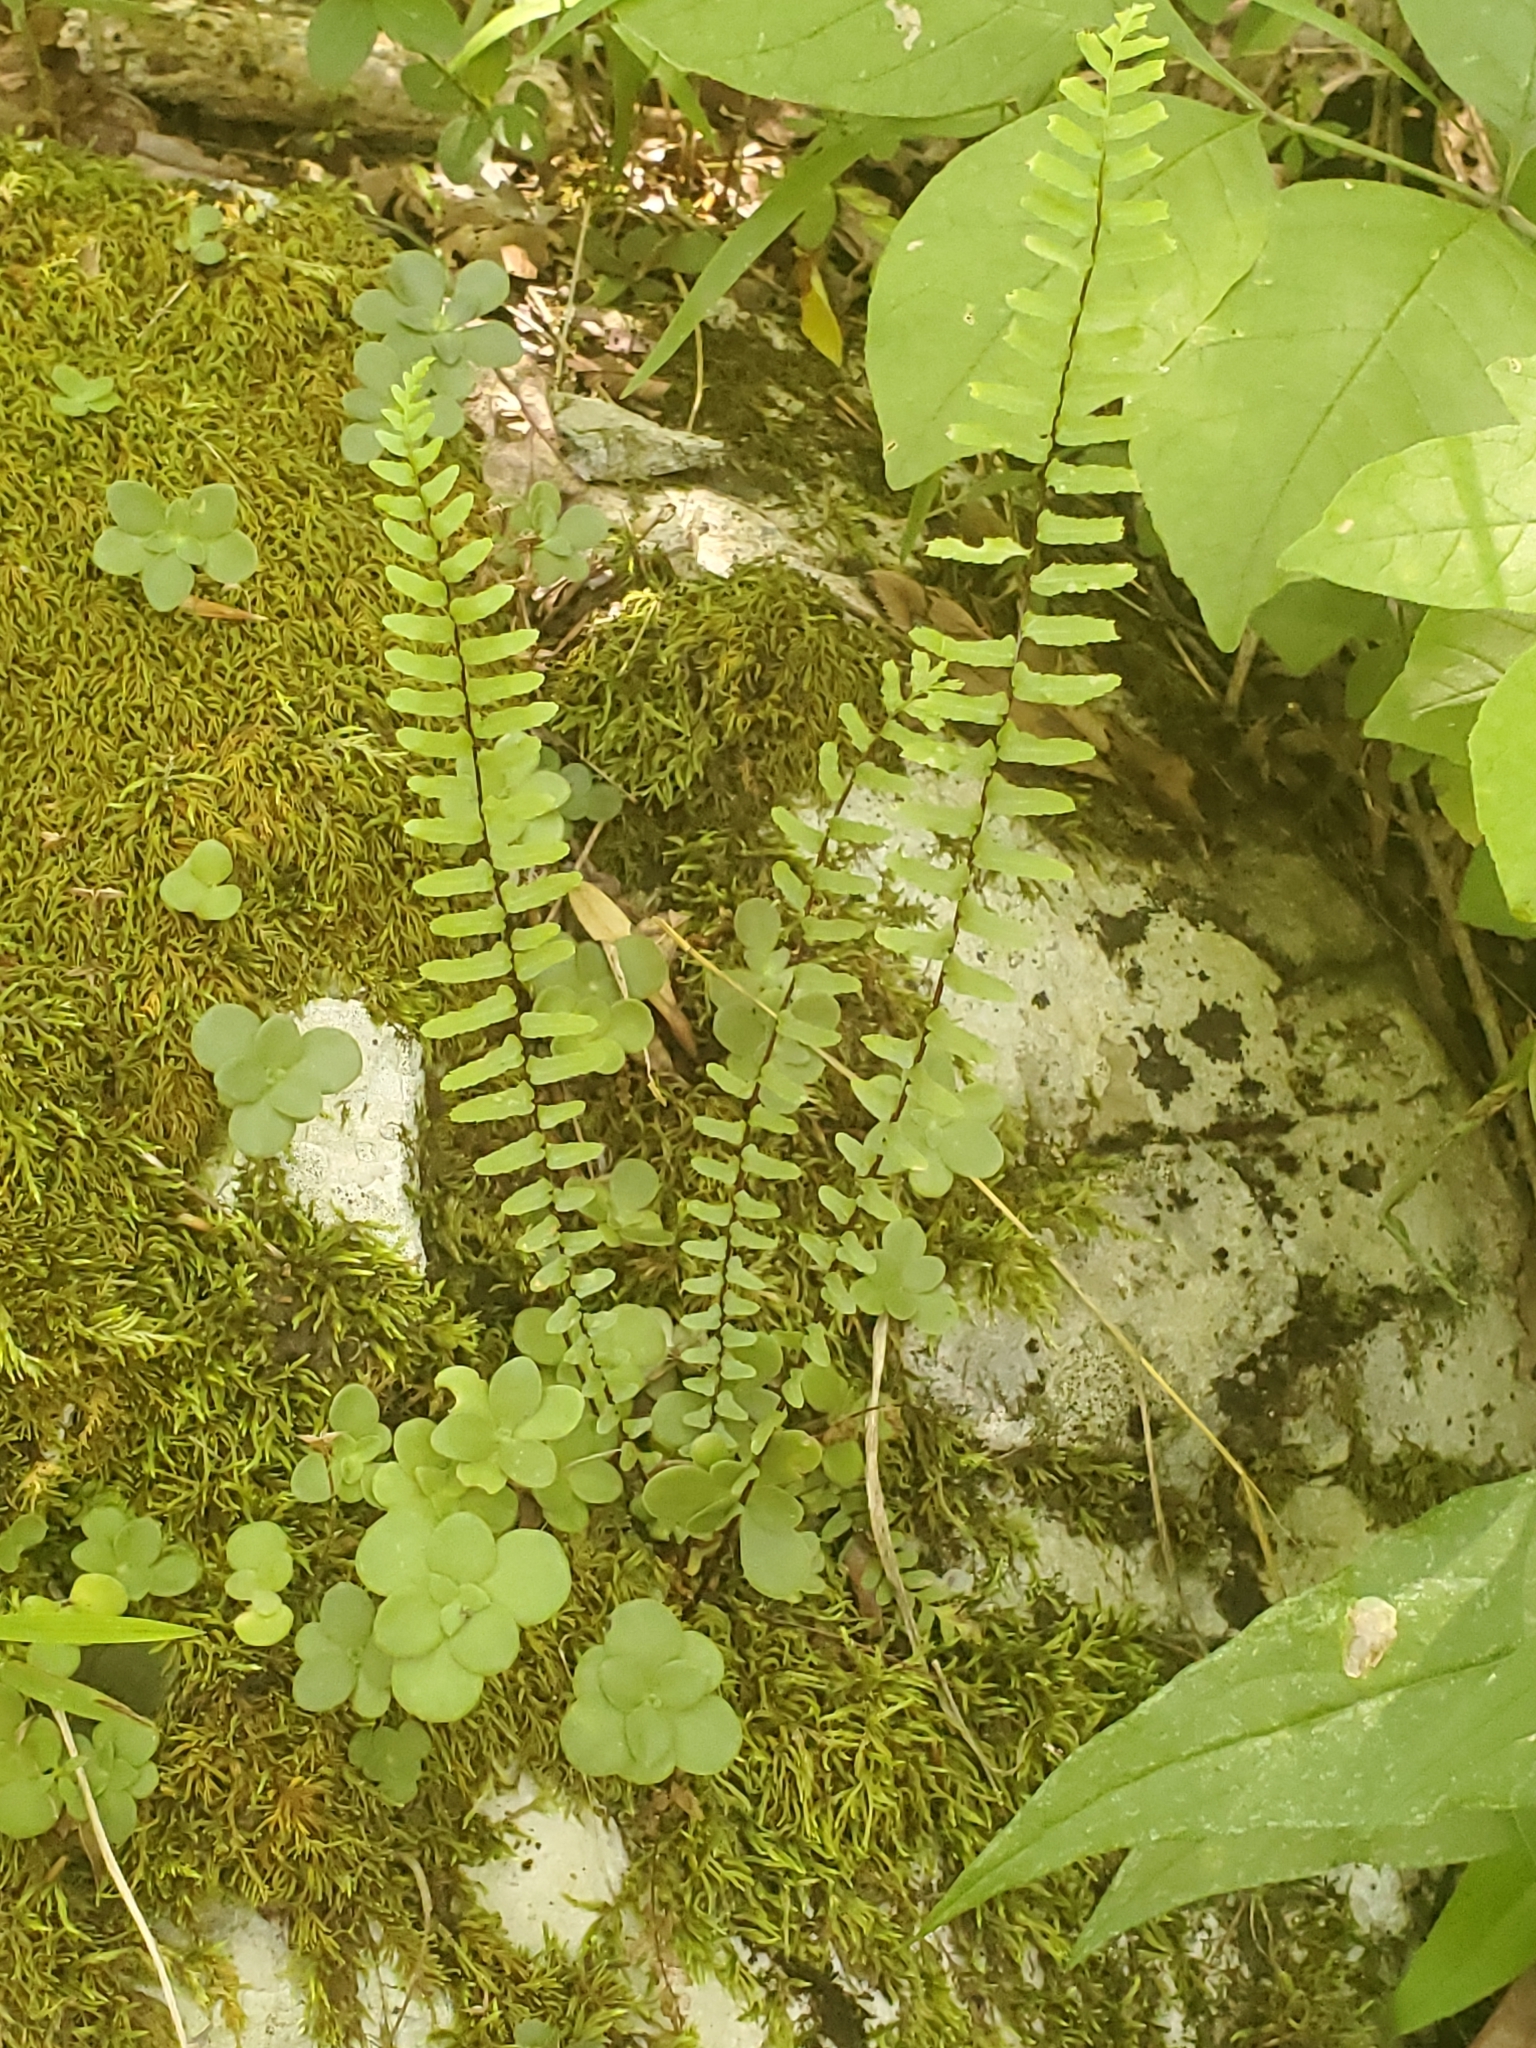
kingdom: Plantae
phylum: Tracheophyta
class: Polypodiopsida
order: Polypodiales
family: Aspleniaceae
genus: Asplenium
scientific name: Asplenium platyneuron
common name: Ebony spleenwort
